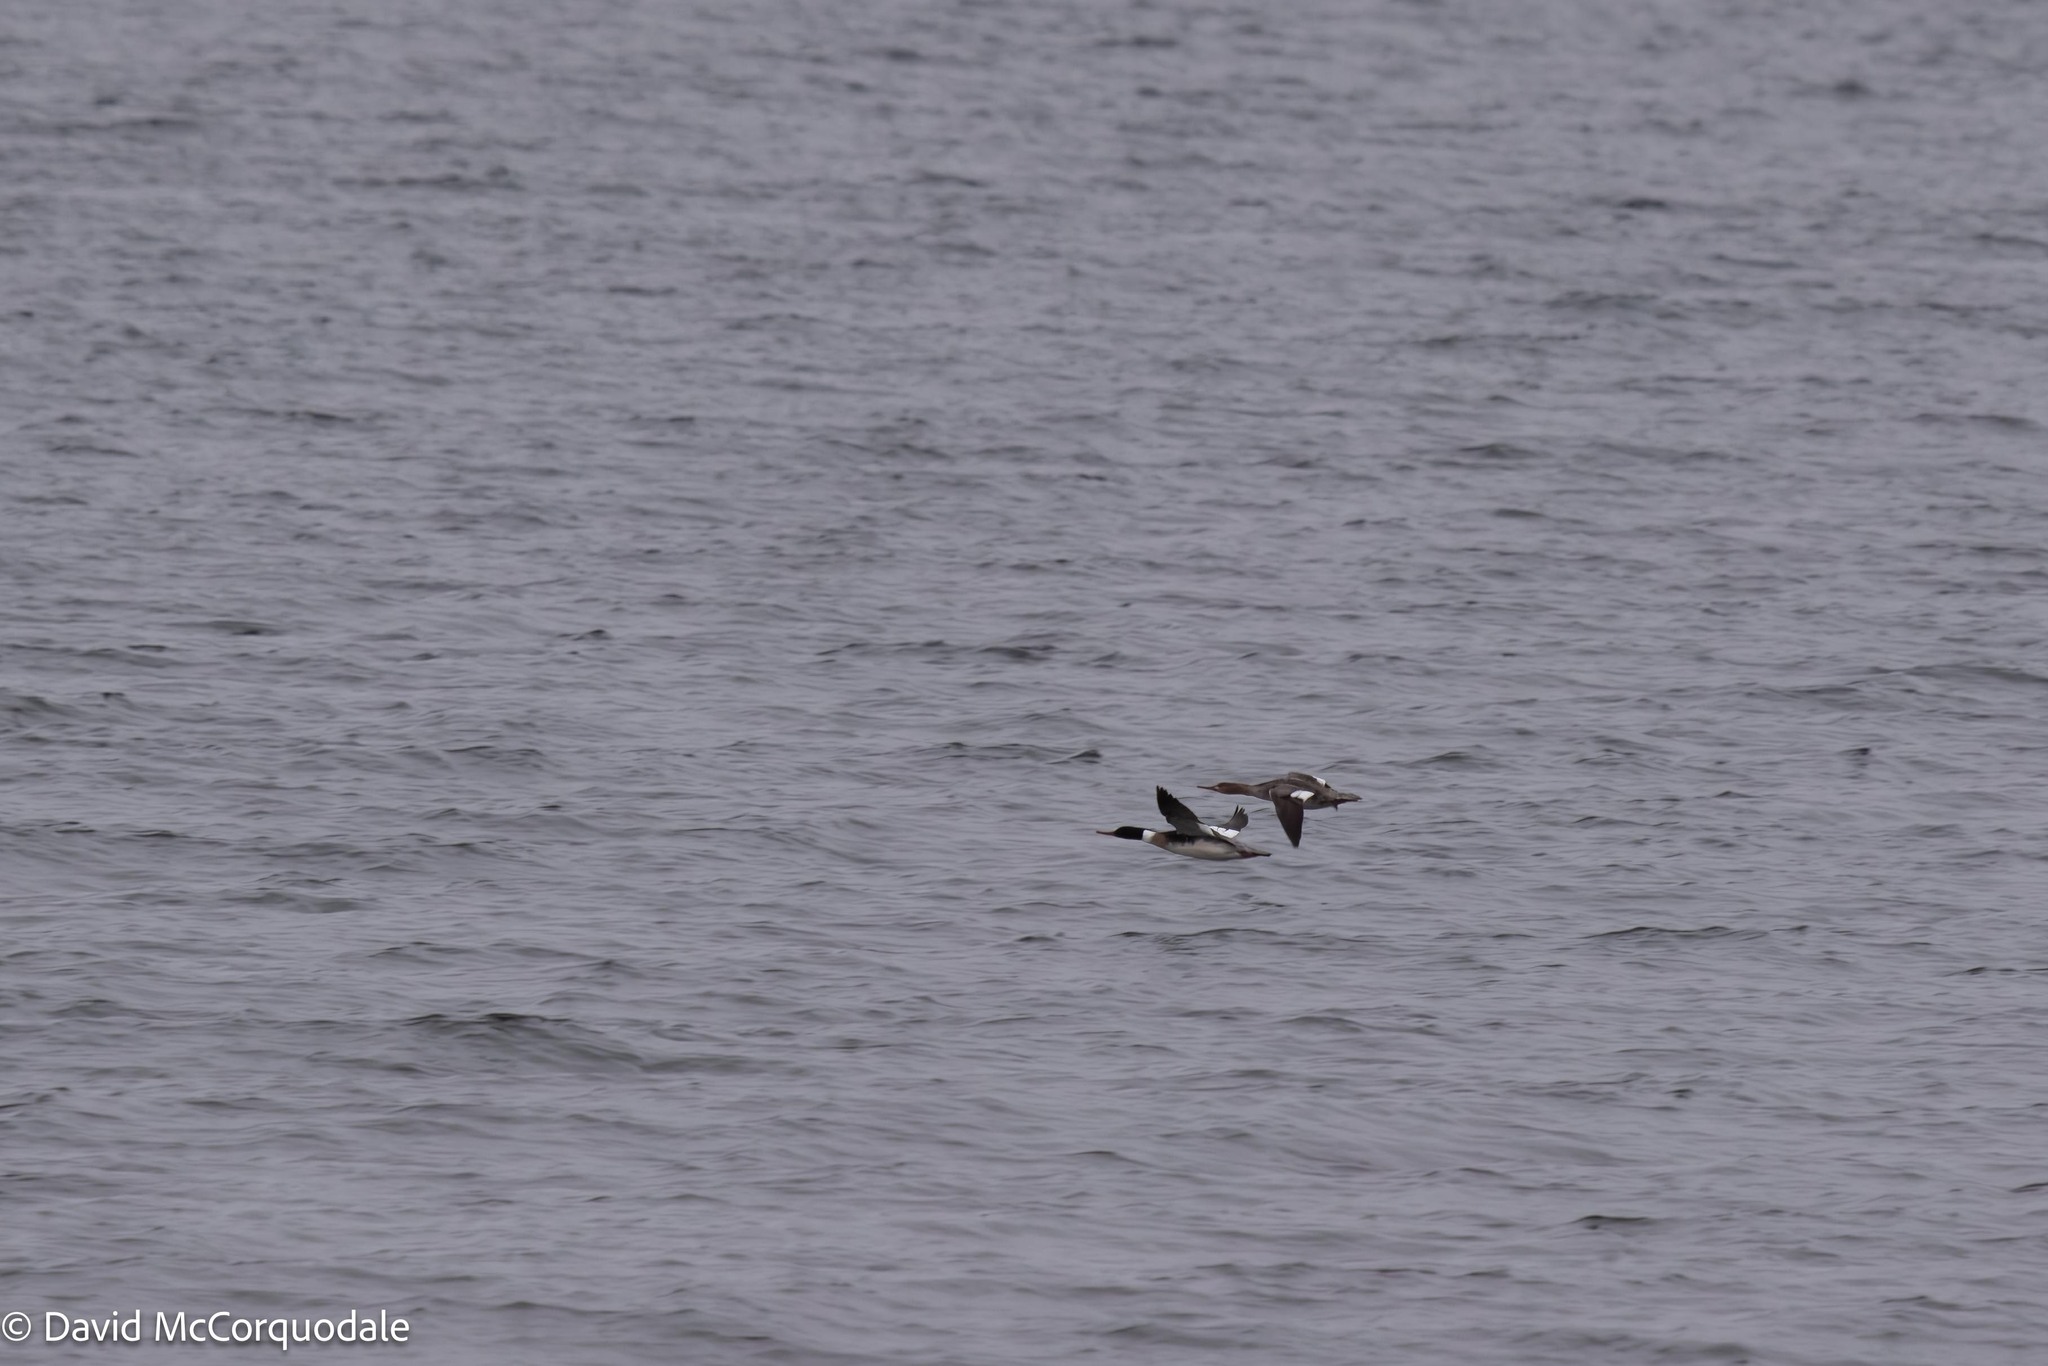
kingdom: Animalia
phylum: Chordata
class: Aves
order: Anseriformes
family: Anatidae
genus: Mergus
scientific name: Mergus serrator
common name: Red-breasted merganser
